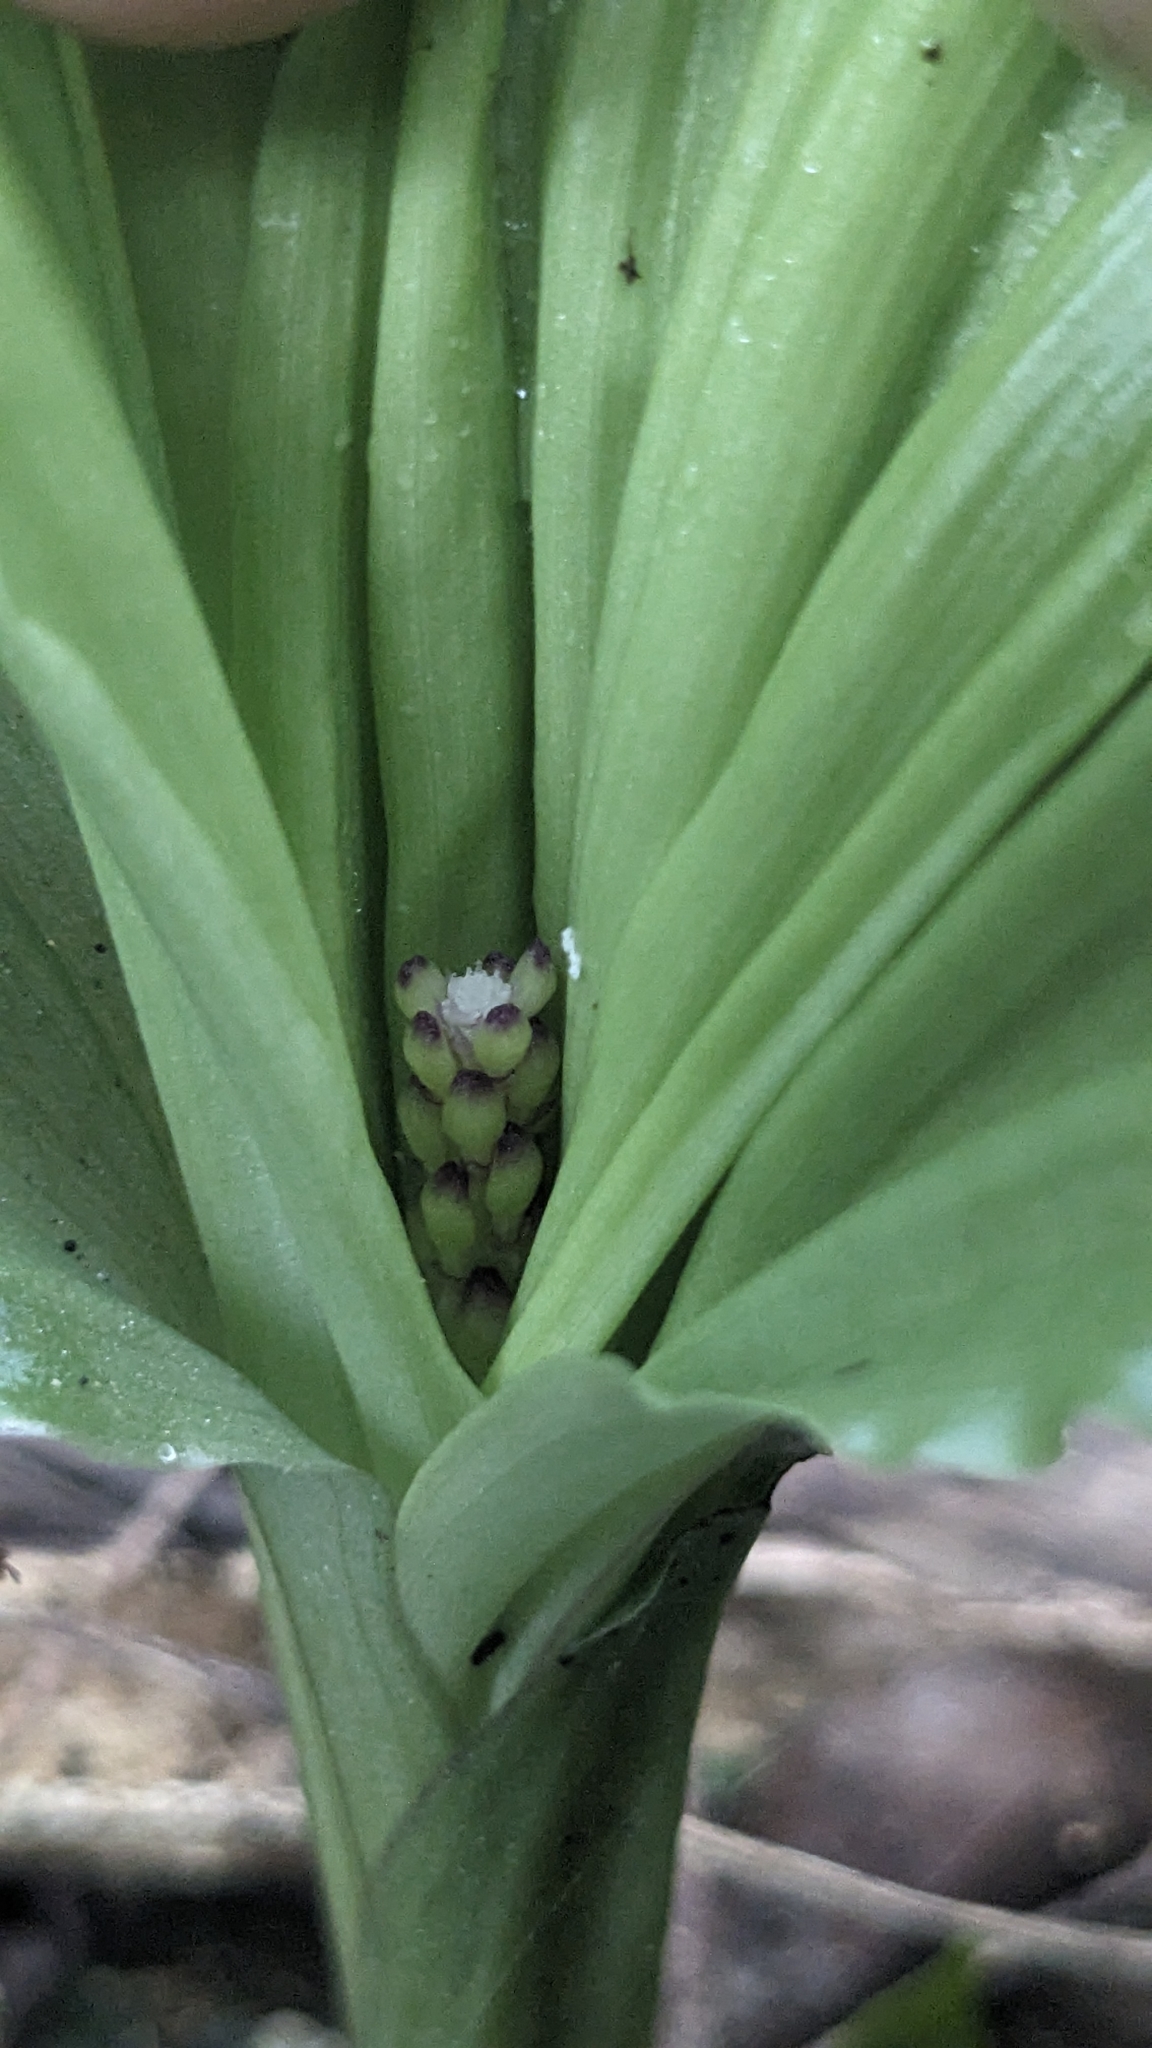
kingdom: Plantae
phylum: Tracheophyta
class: Liliopsida
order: Asparagales
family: Orchidaceae
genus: Liparis
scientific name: Liparis formosana
